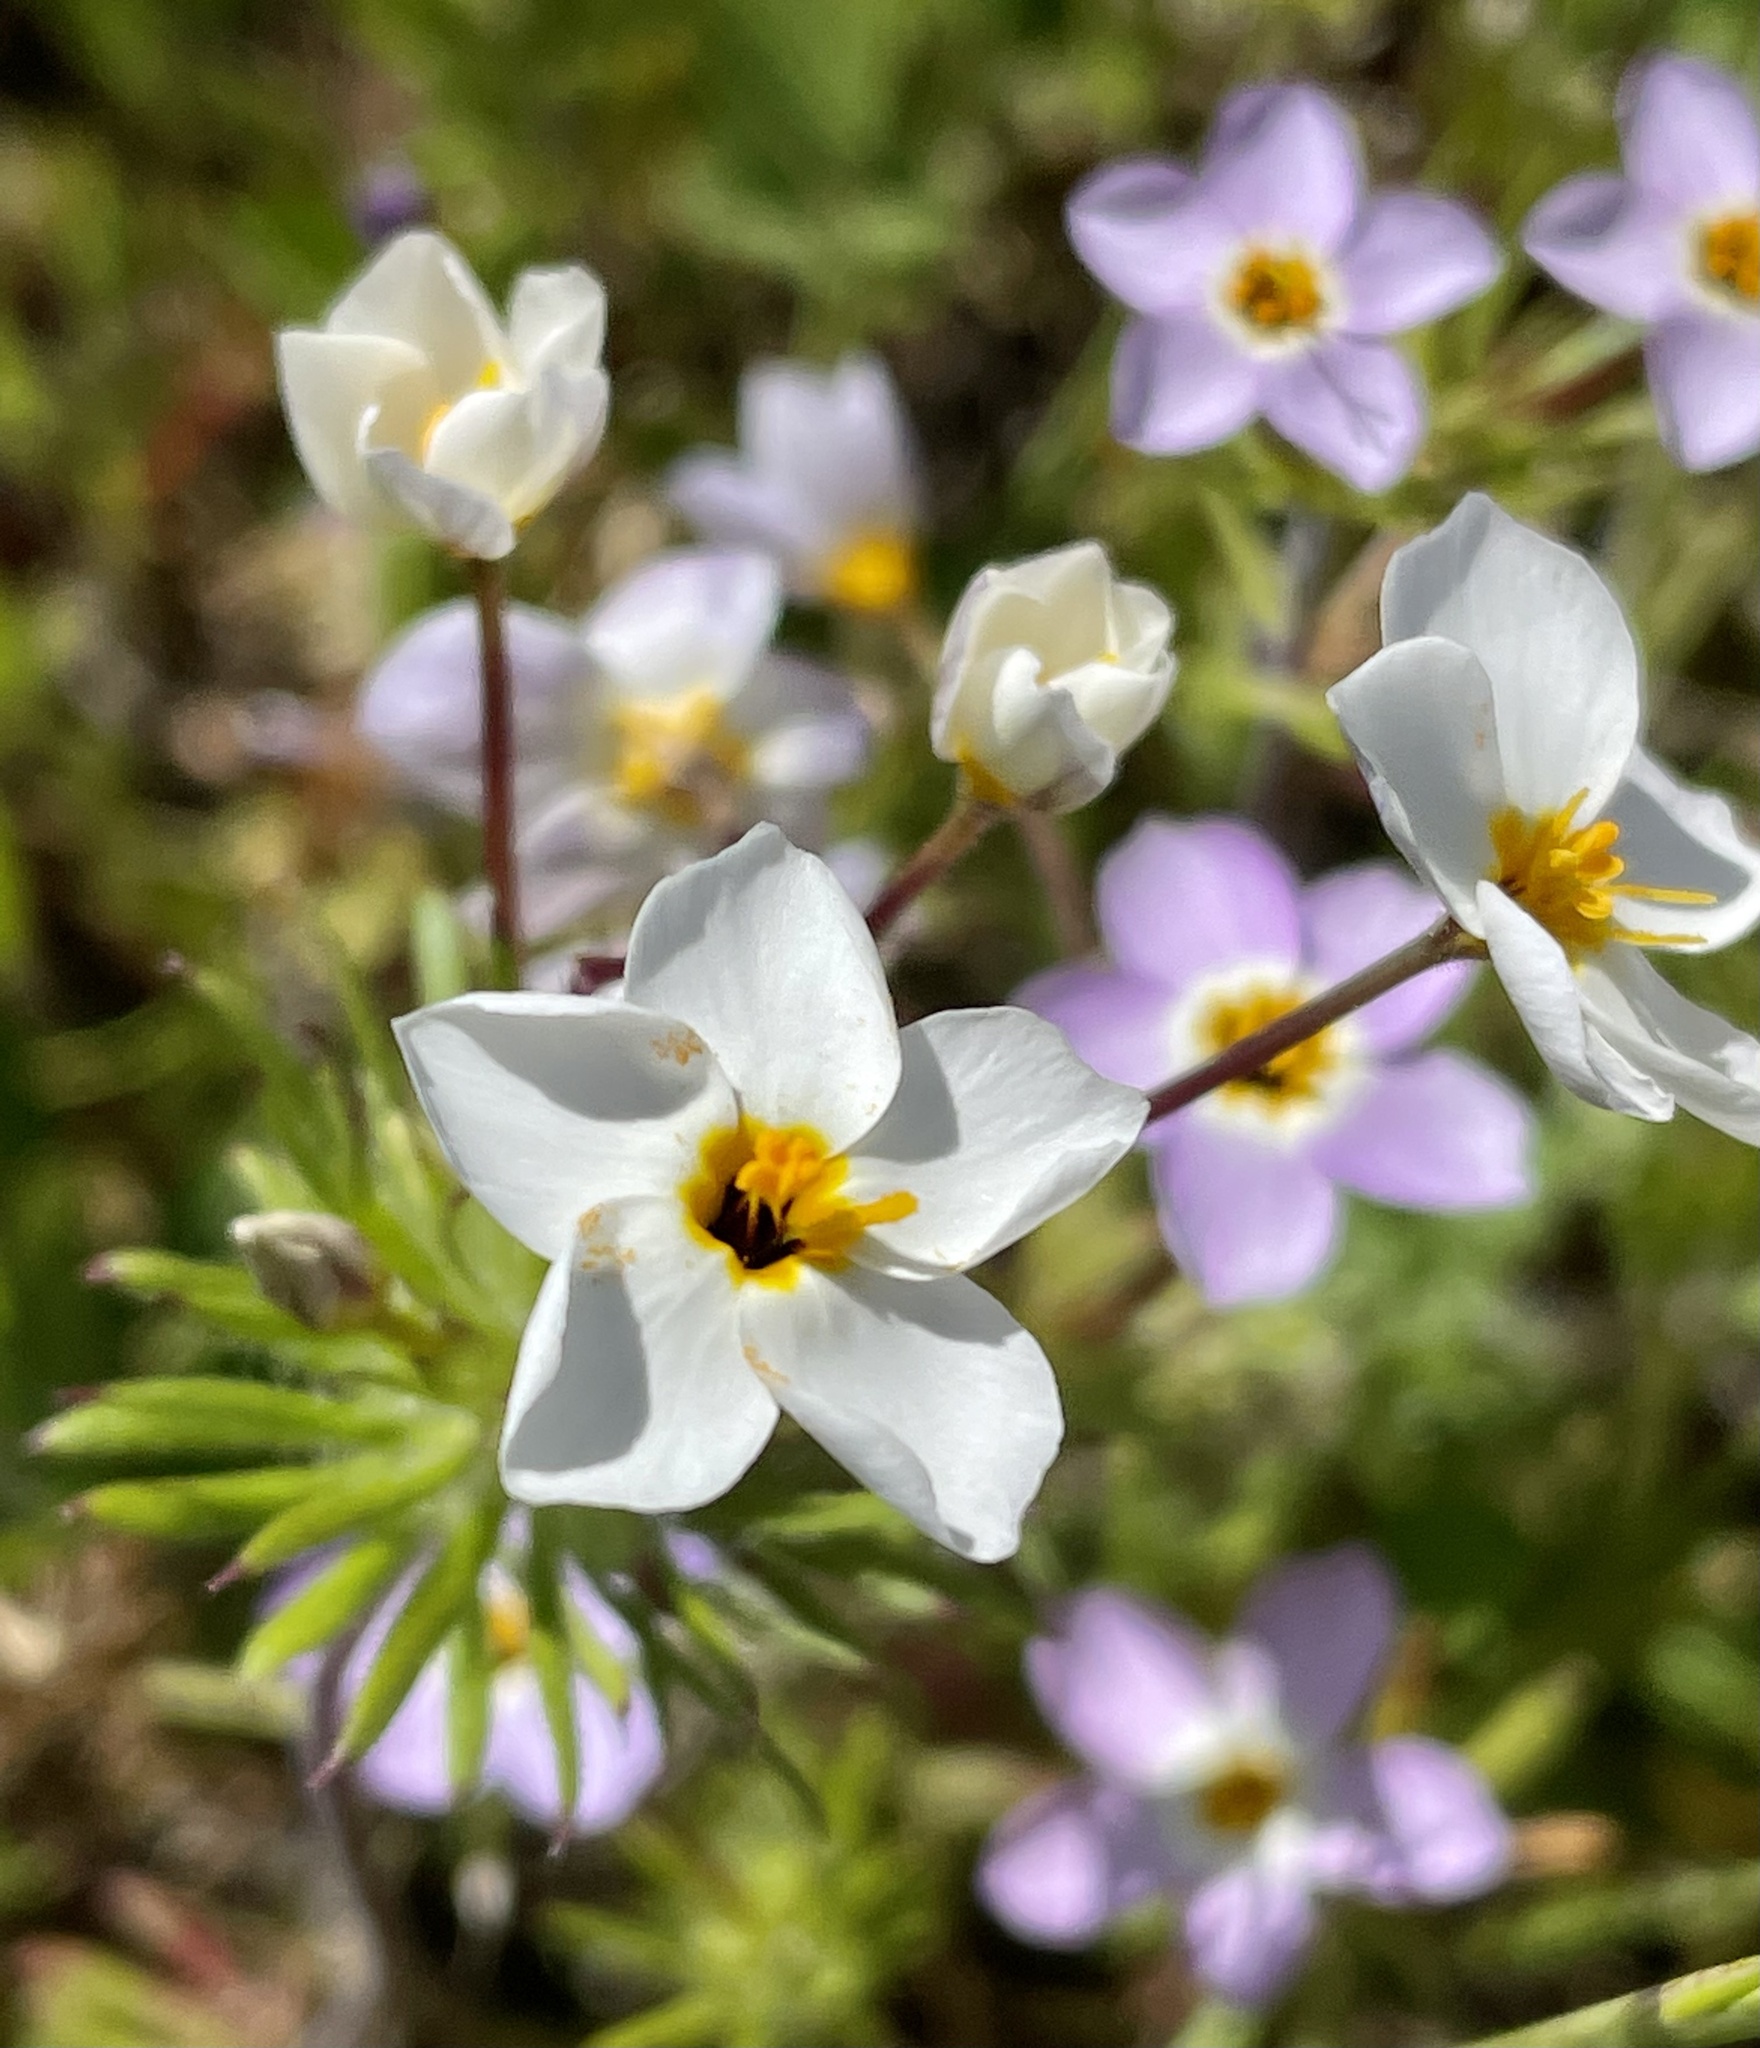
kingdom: Plantae
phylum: Tracheophyta
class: Magnoliopsida
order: Ericales
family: Polemoniaceae
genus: Leptosiphon
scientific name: Leptosiphon androsaceus
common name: False babystars
